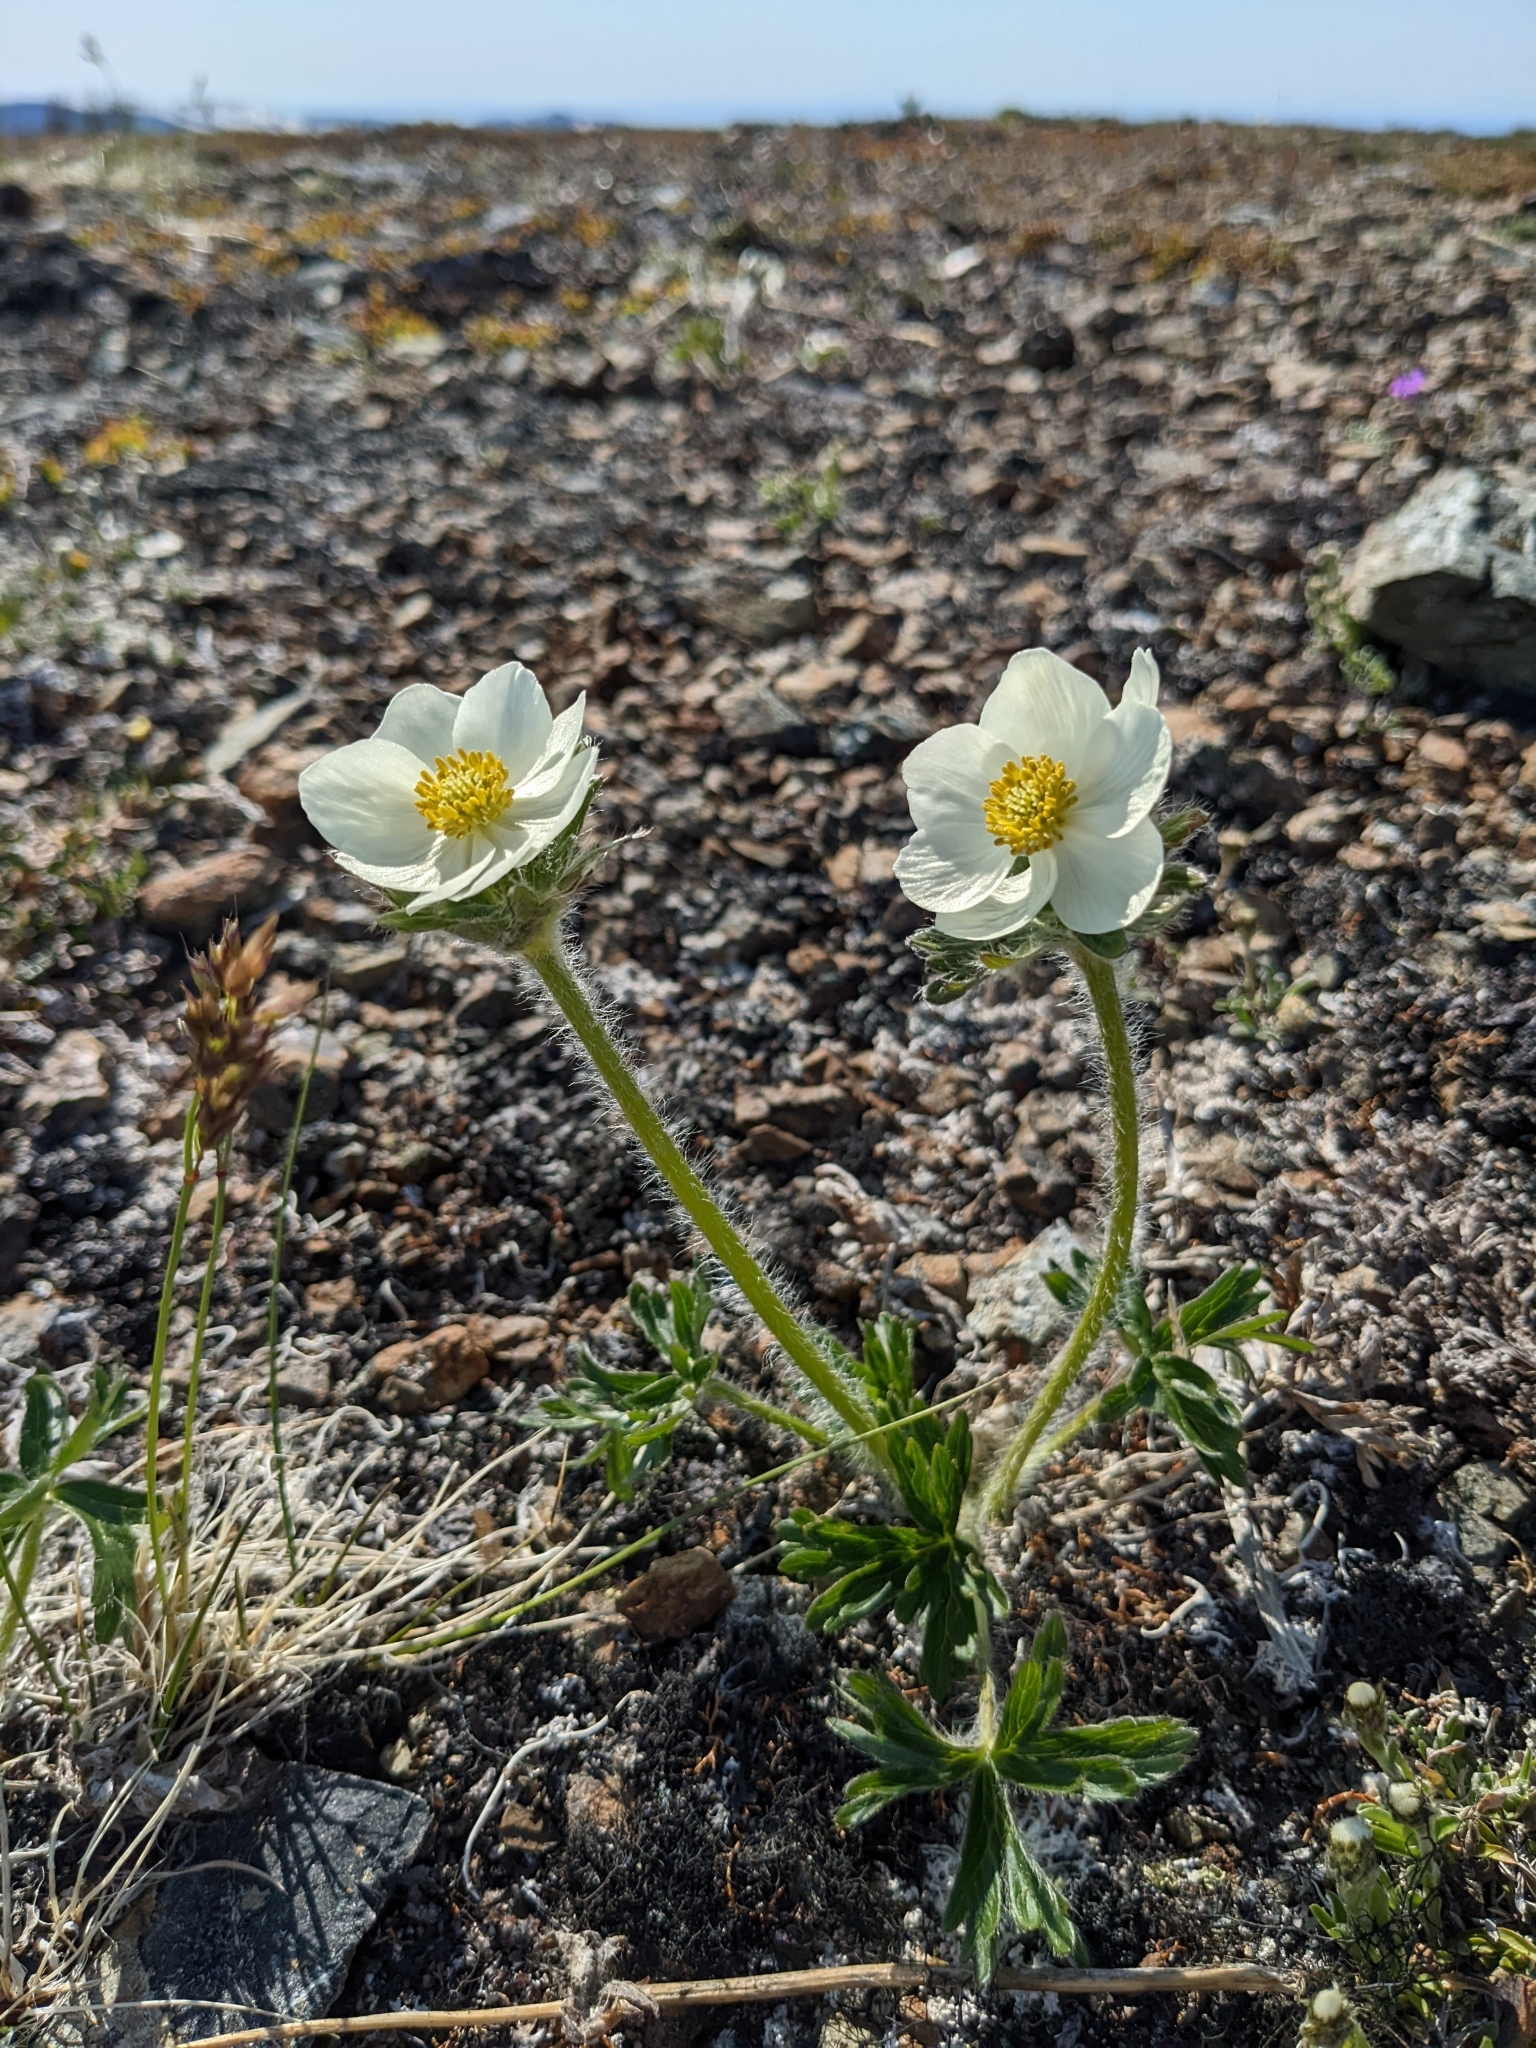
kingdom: Plantae
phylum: Tracheophyta
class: Magnoliopsida
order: Ranunculales
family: Ranunculaceae
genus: Anemonastrum
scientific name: Anemonastrum narcissiflorum
